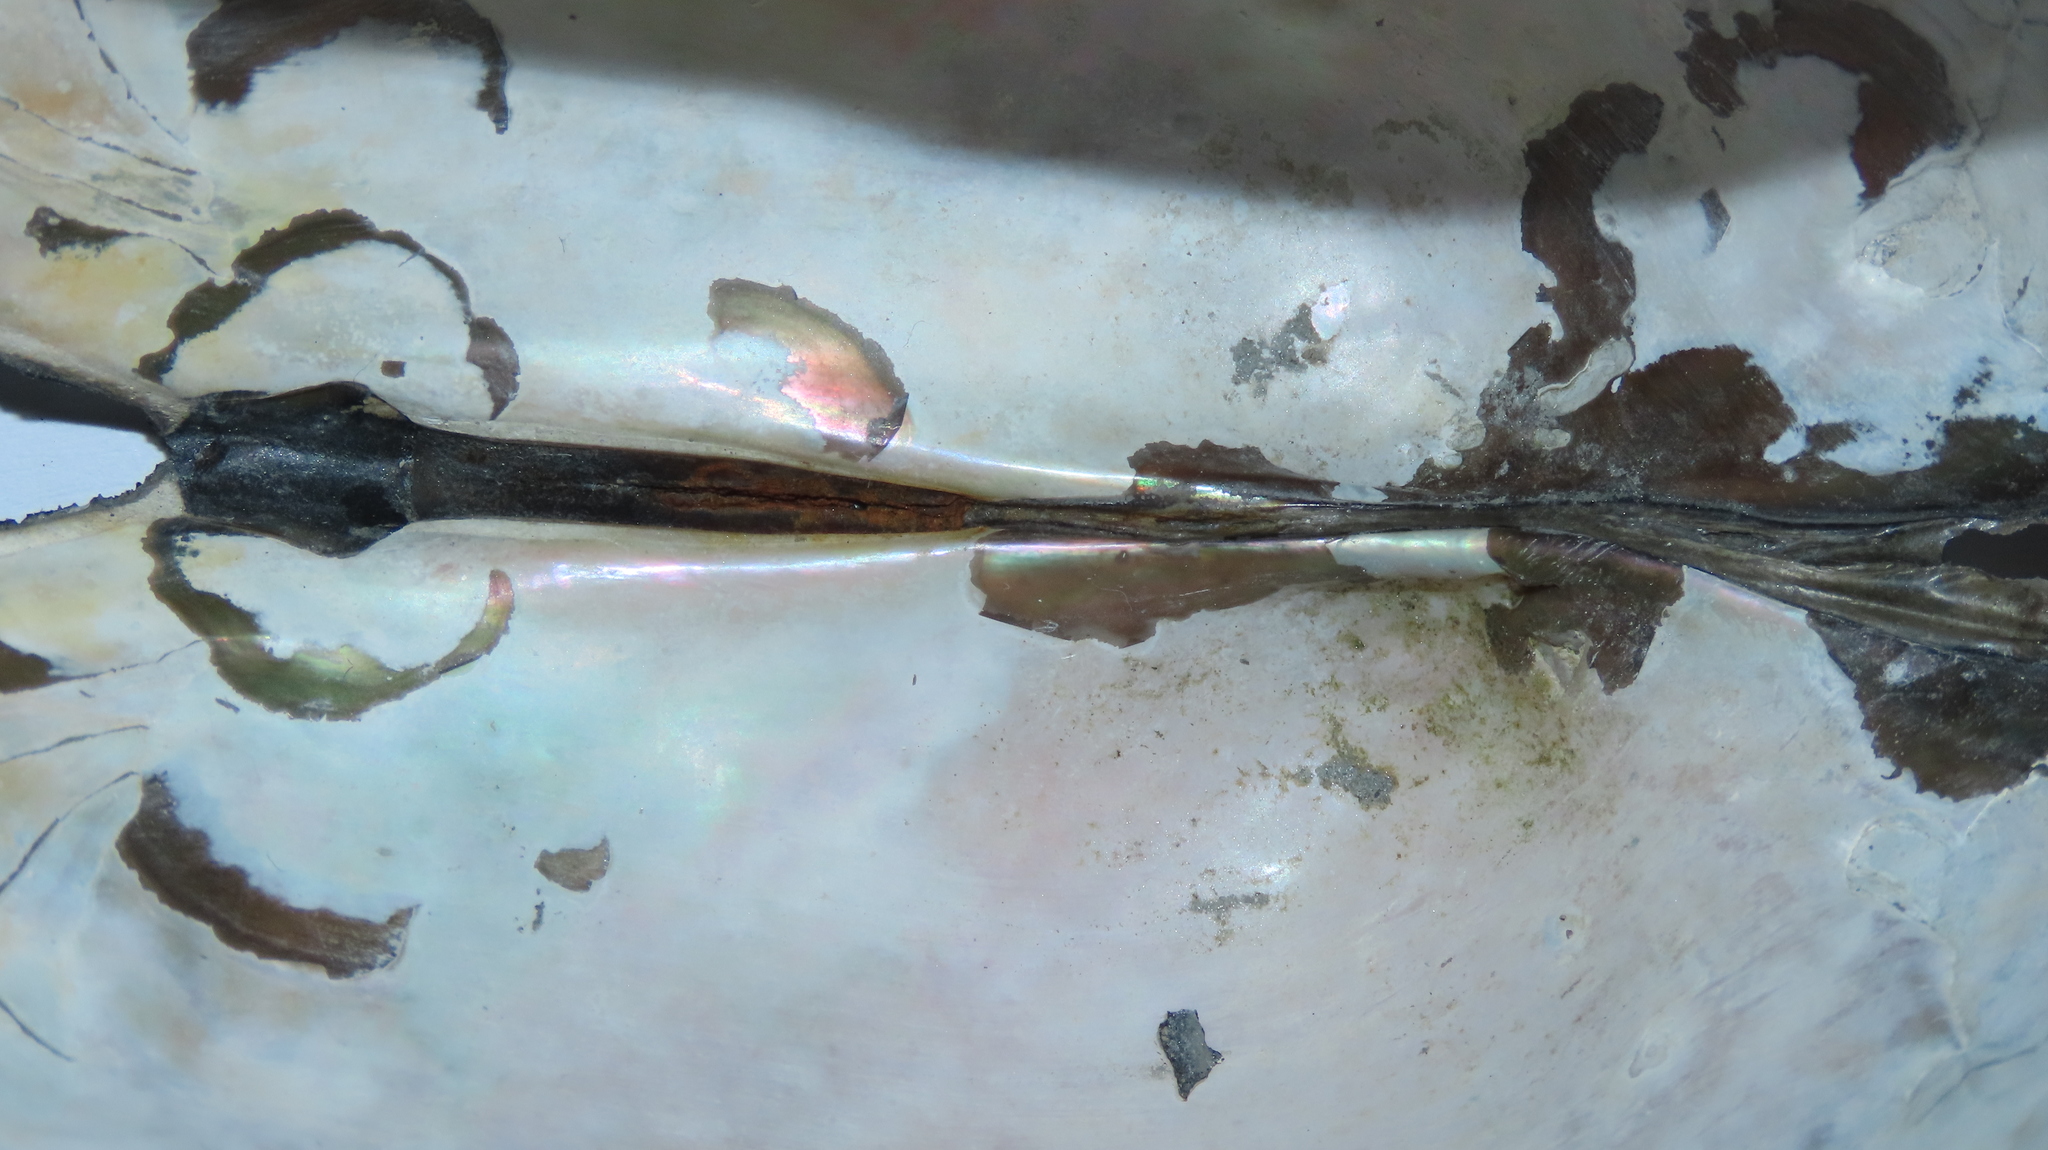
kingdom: Animalia
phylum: Mollusca
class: Bivalvia
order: Unionida
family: Unionidae
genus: Sinanodonta
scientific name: Sinanodonta woodiana
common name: Chinese pond mussel
